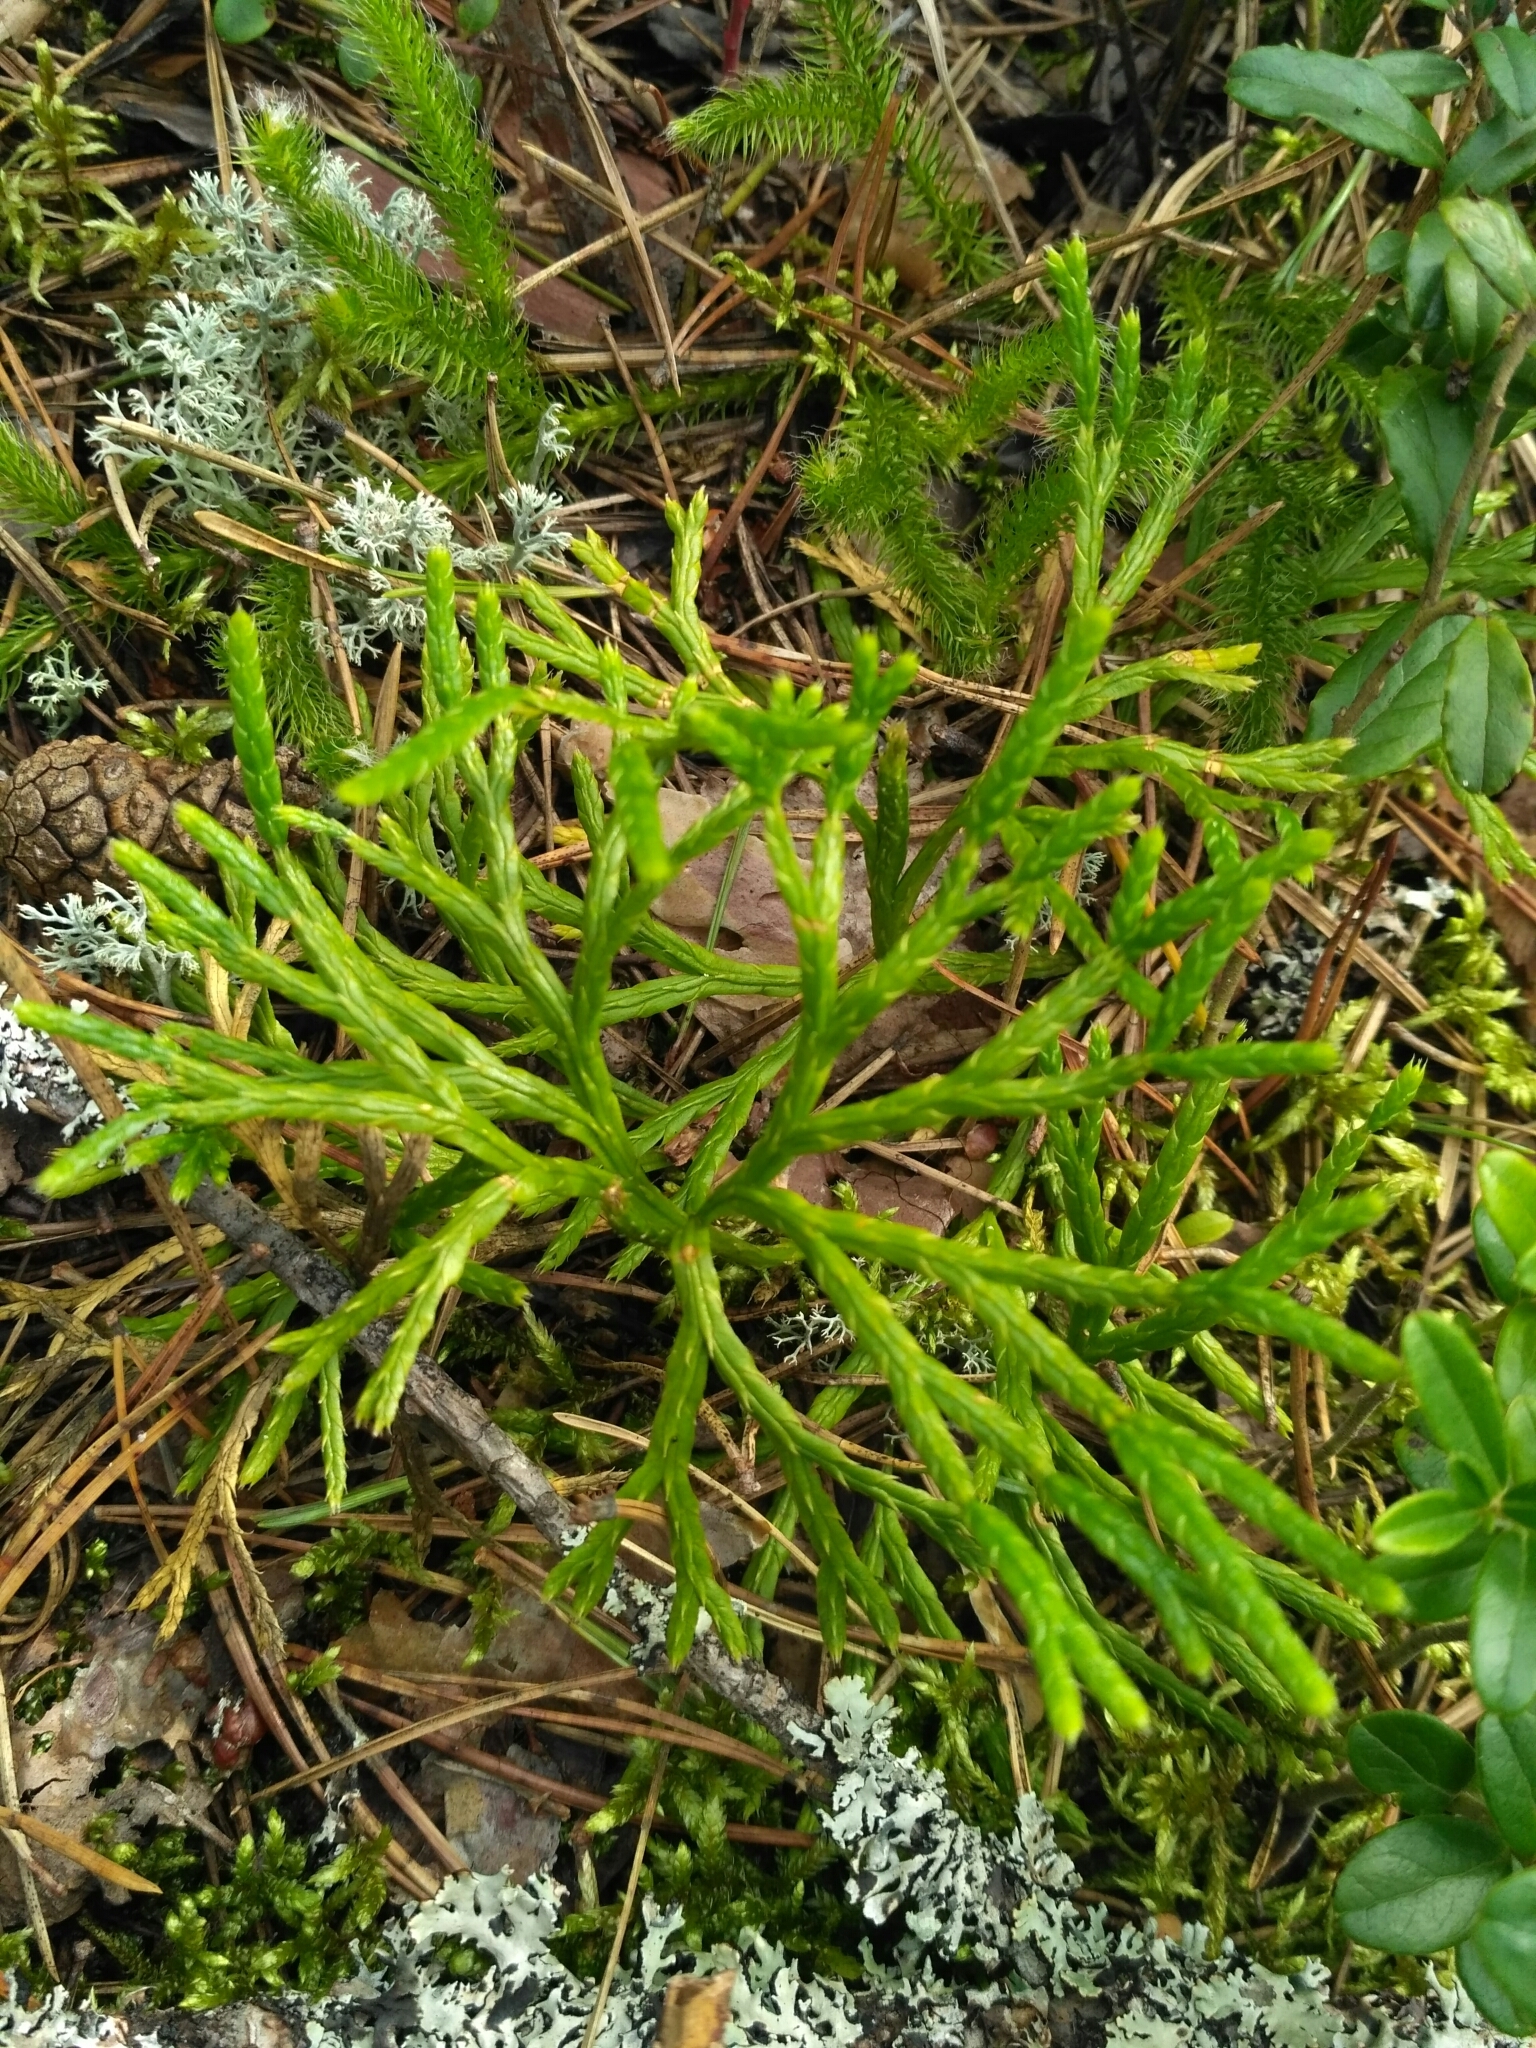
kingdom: Plantae
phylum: Tracheophyta
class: Lycopodiopsida
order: Lycopodiales
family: Lycopodiaceae
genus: Diphasiastrum
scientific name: Diphasiastrum complanatum
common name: Northern running-pine
